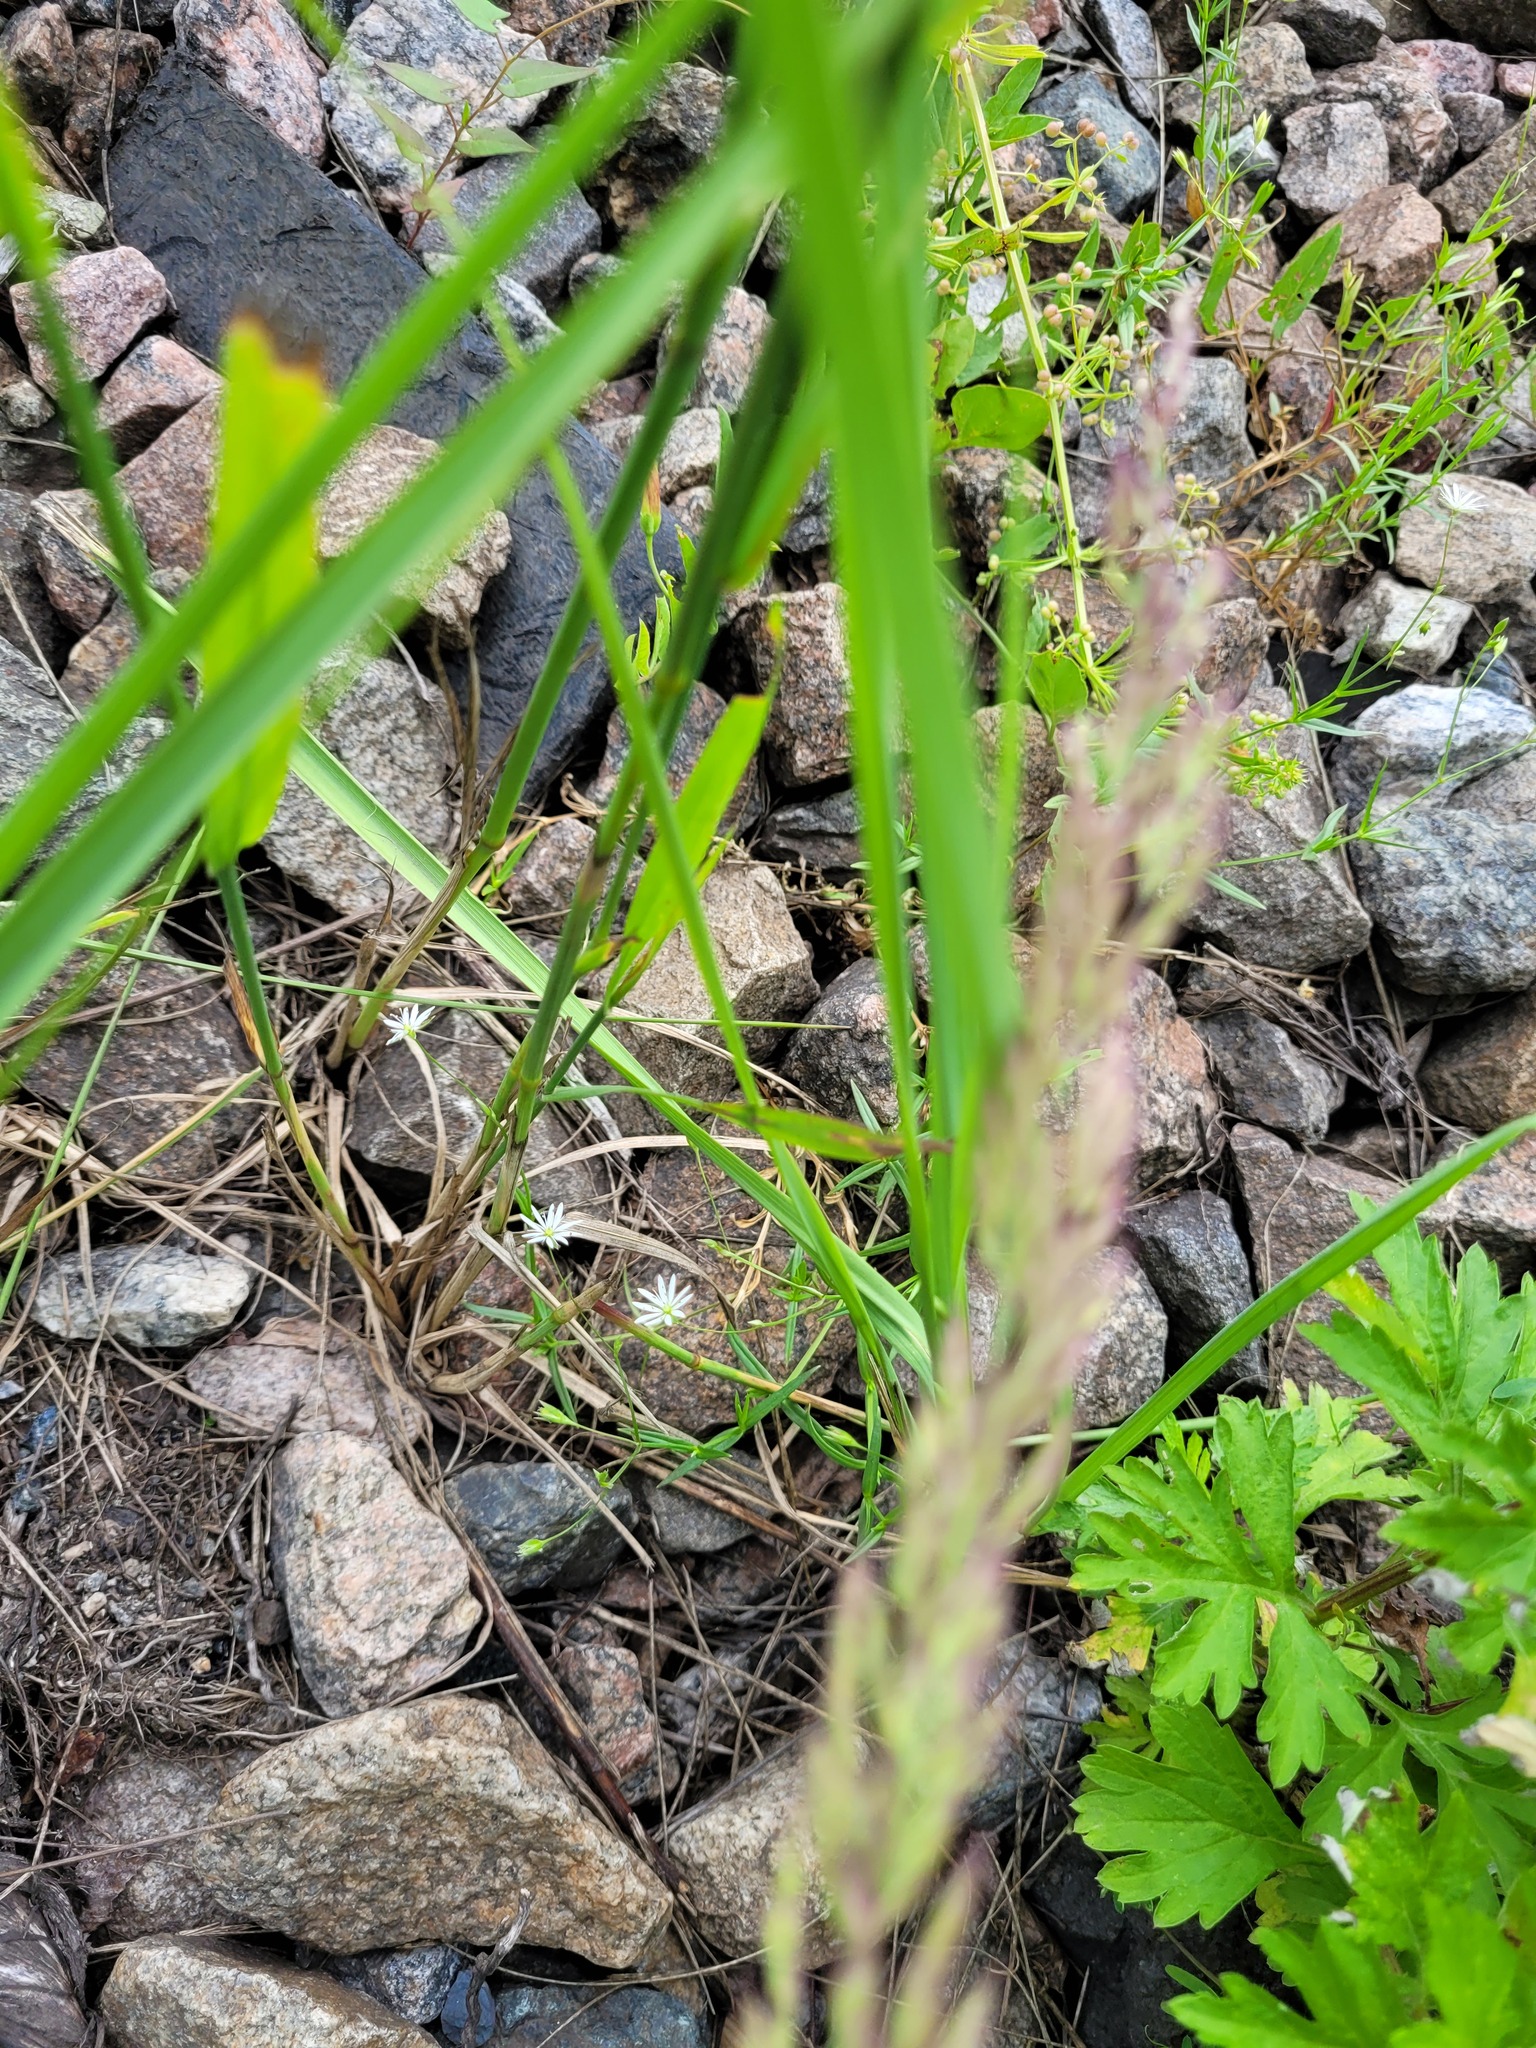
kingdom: Plantae
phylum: Tracheophyta
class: Magnoliopsida
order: Caryophyllales
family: Caryophyllaceae
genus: Stellaria
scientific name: Stellaria graminea
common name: Grass-like starwort
